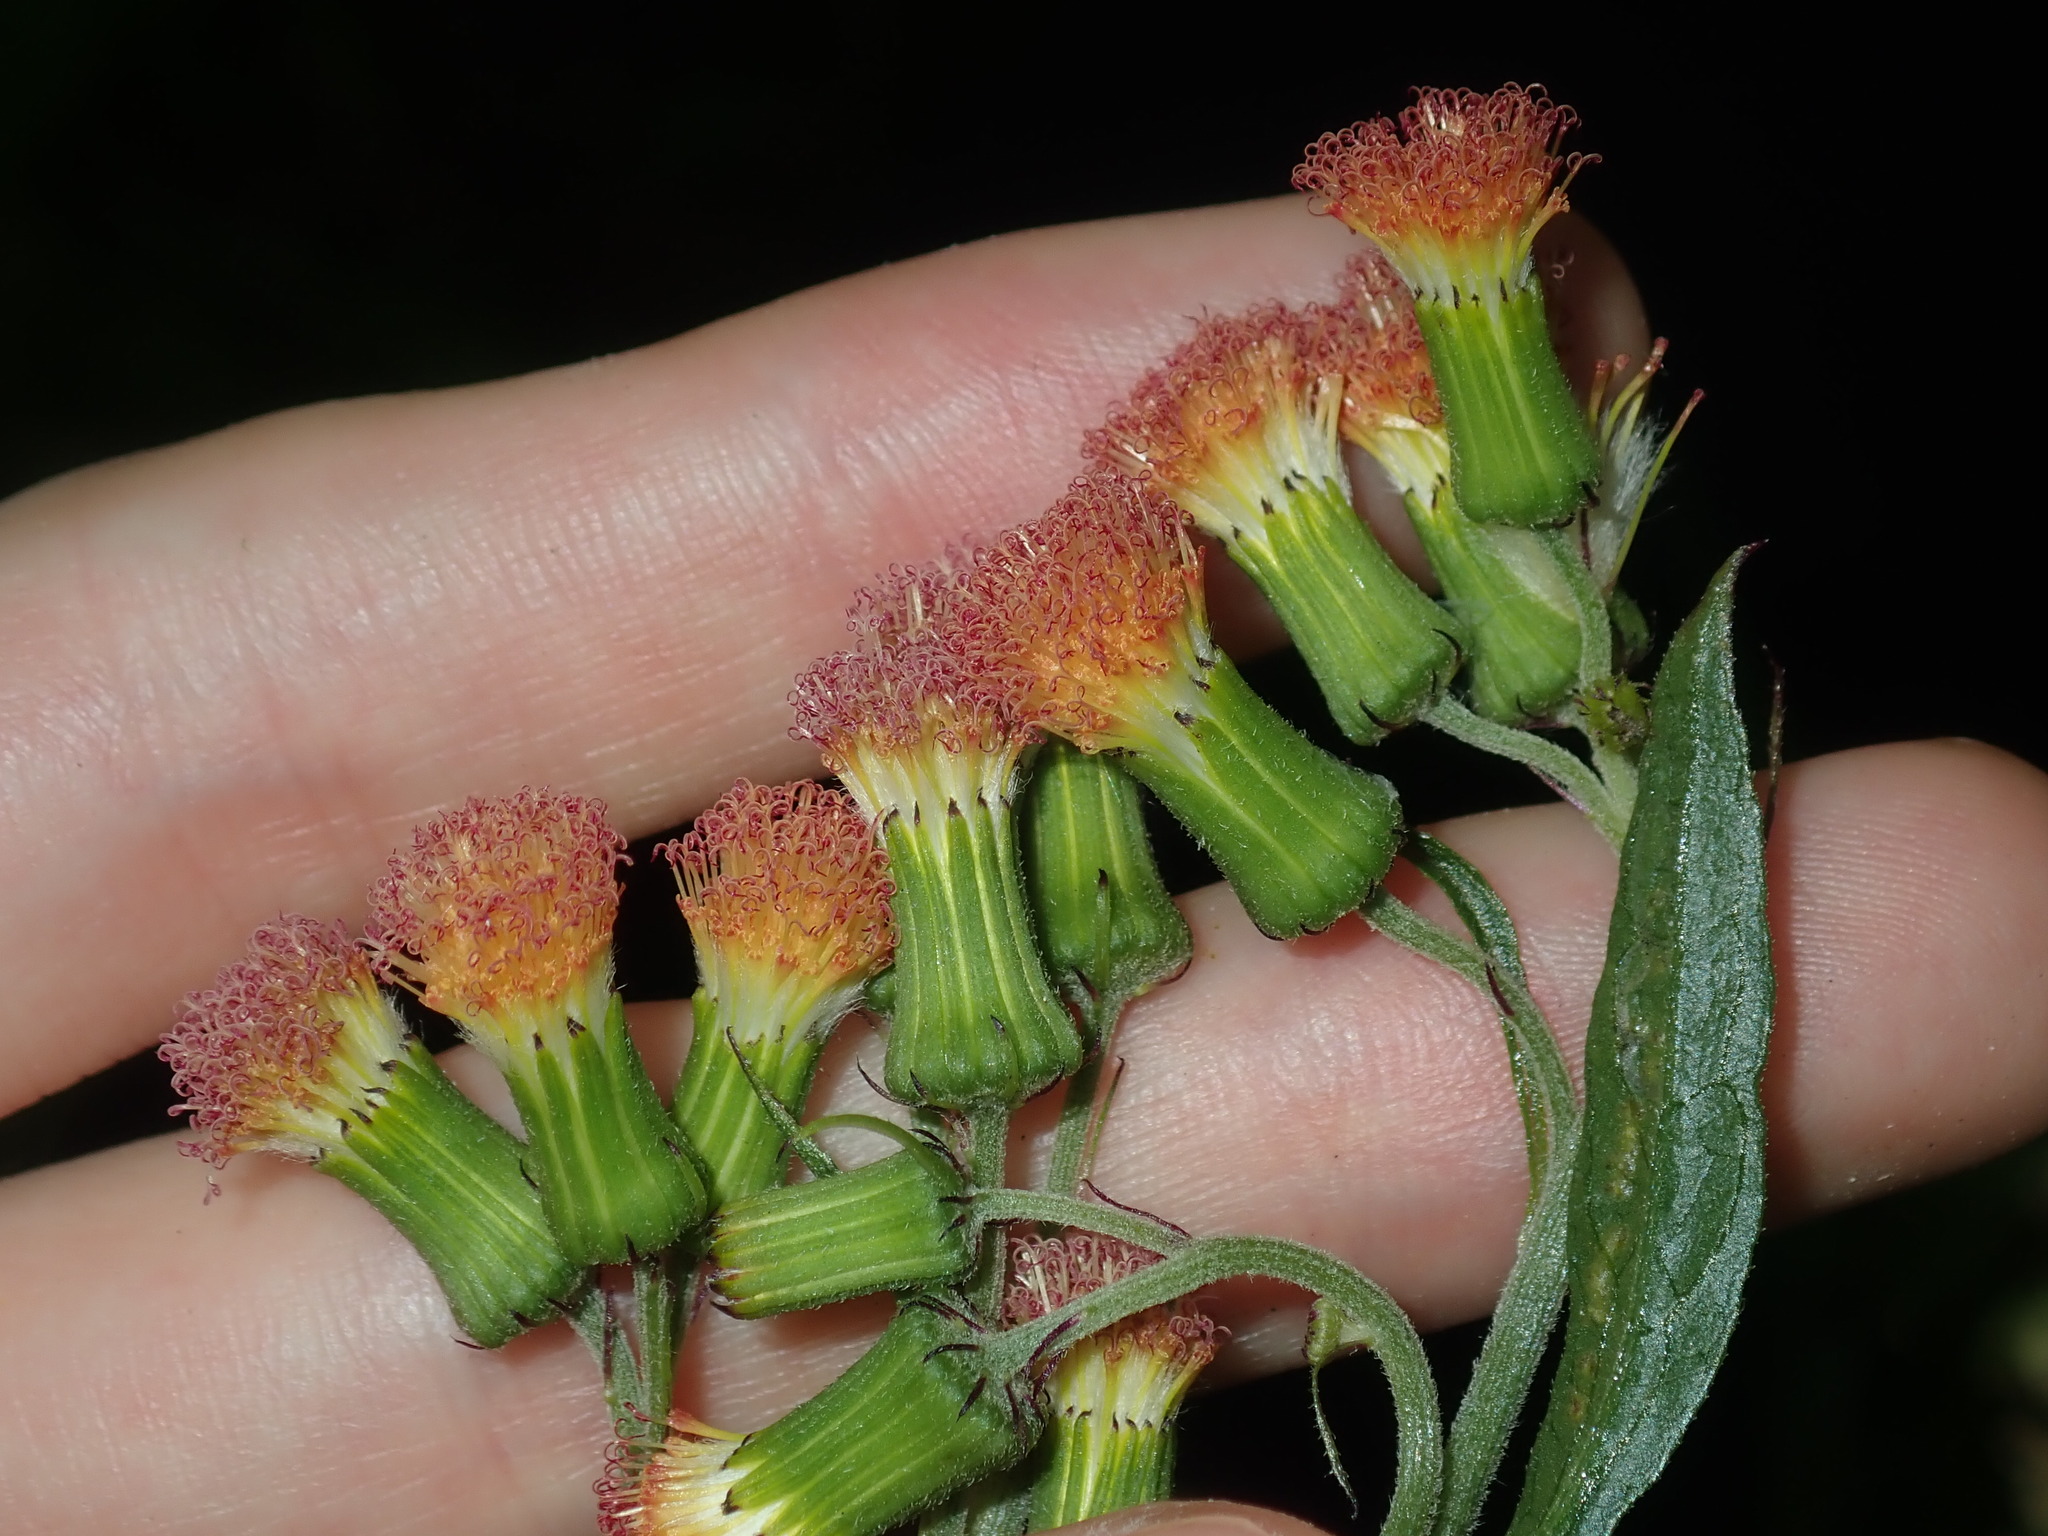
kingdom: Plantae
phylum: Tracheophyta
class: Magnoliopsida
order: Asterales
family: Asteraceae
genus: Crassocephalum
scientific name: Crassocephalum crepidioides
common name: Redflower ragleaf
